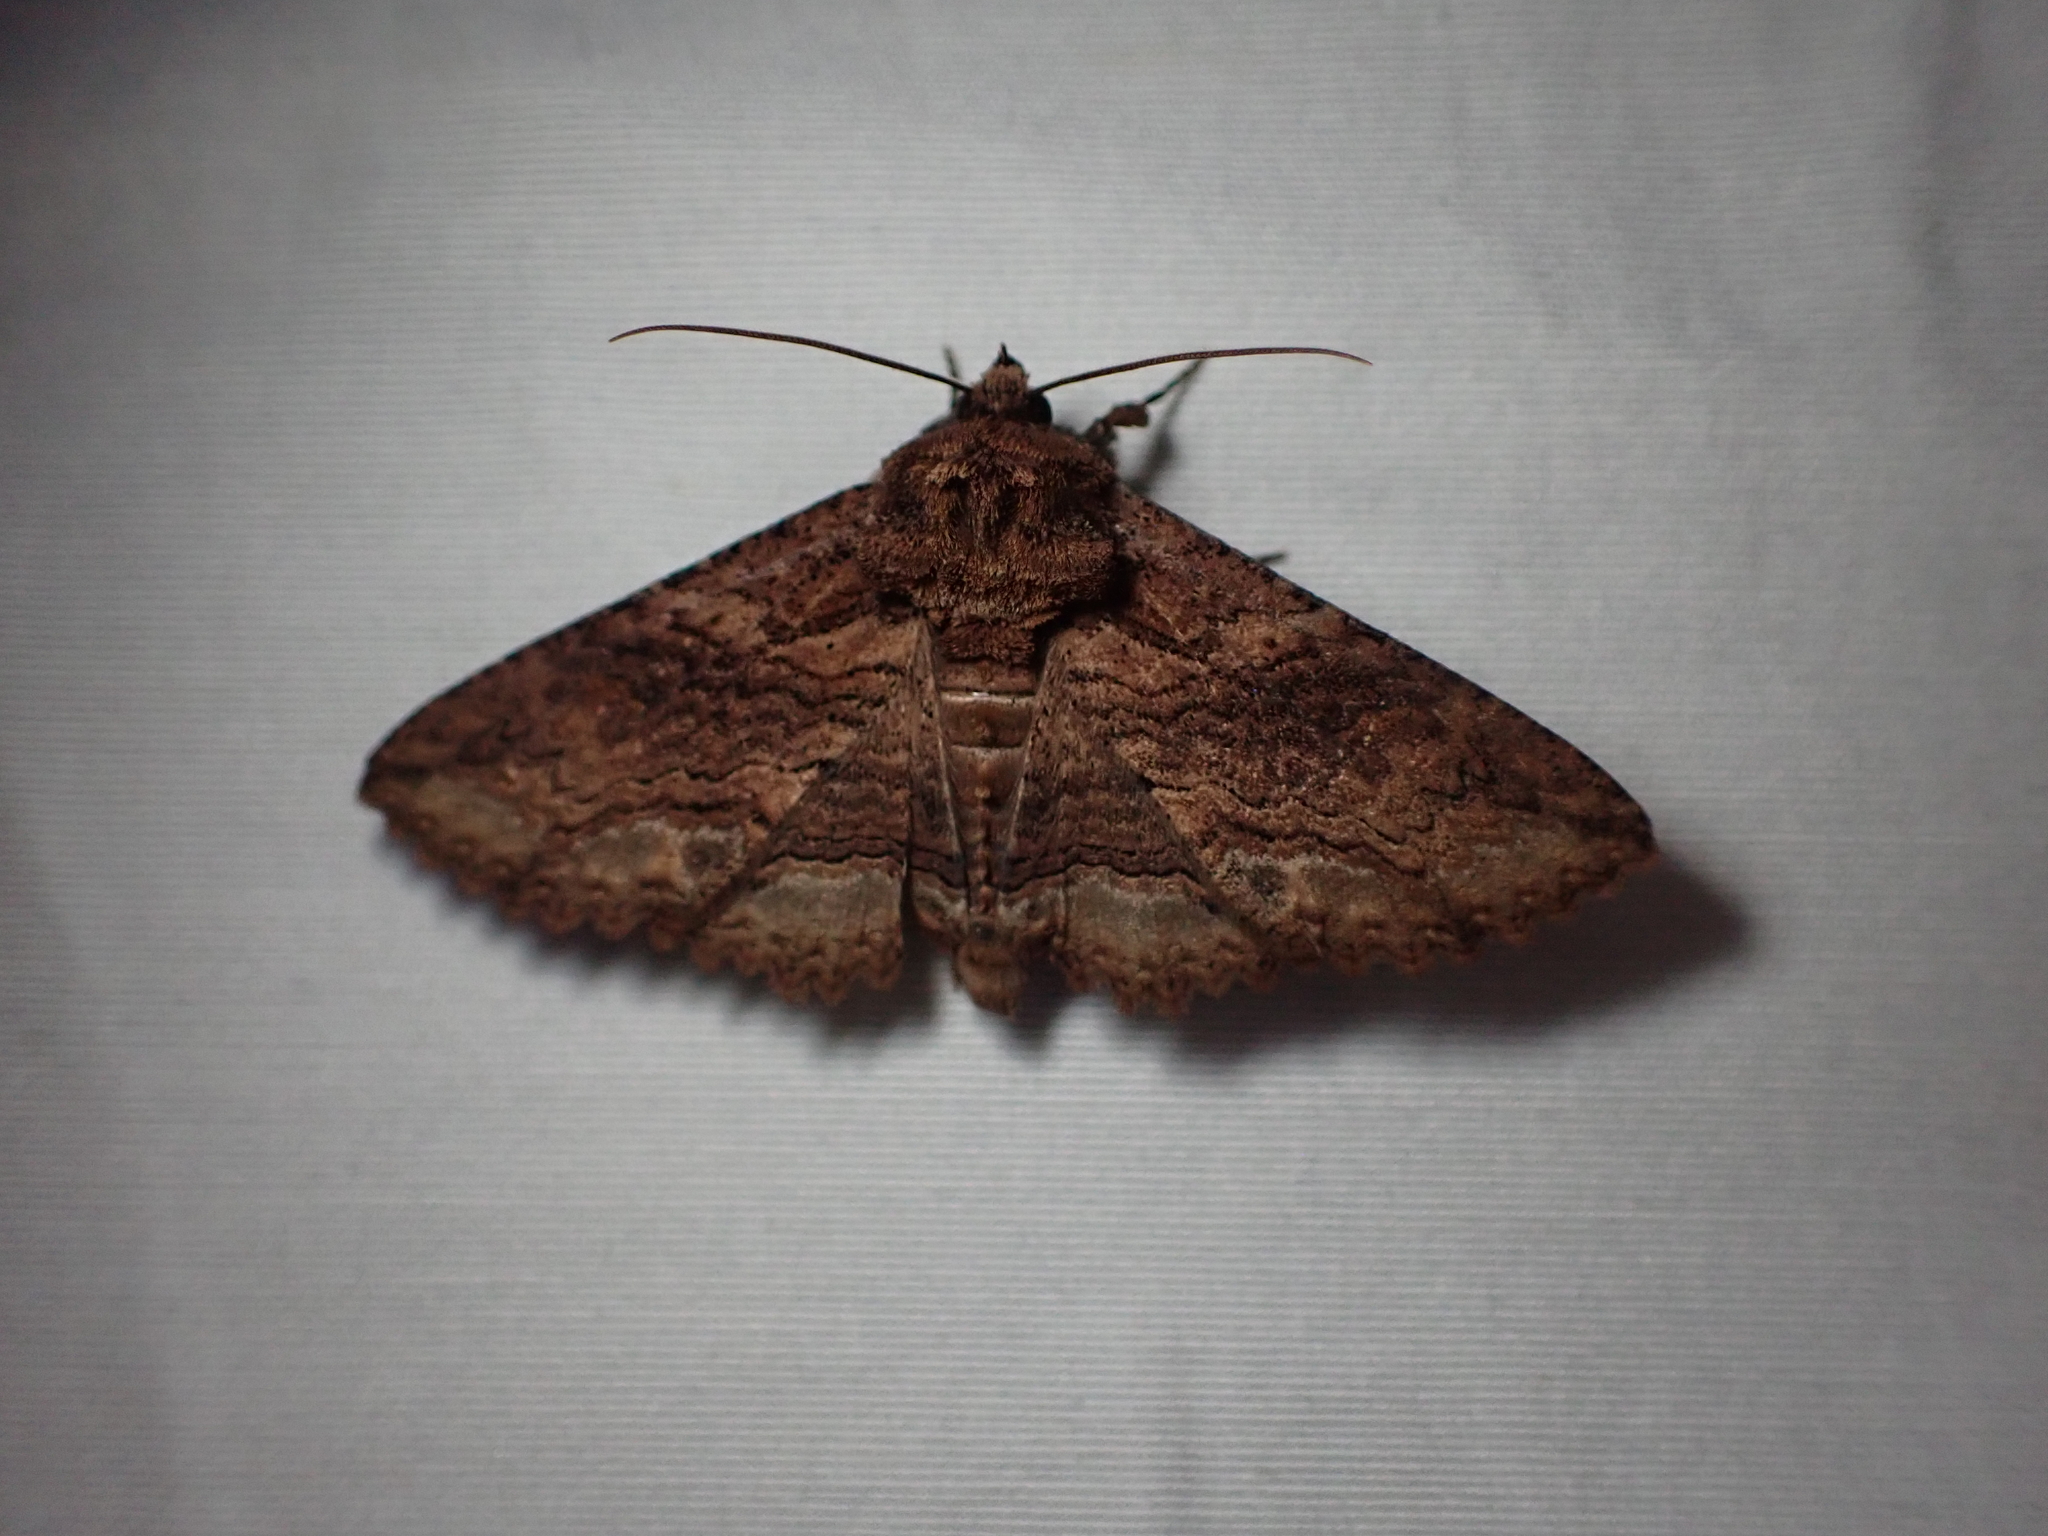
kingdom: Animalia
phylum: Arthropoda
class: Insecta
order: Lepidoptera
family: Erebidae
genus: Zale
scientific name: Zale lunata
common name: Lunate zale moth
